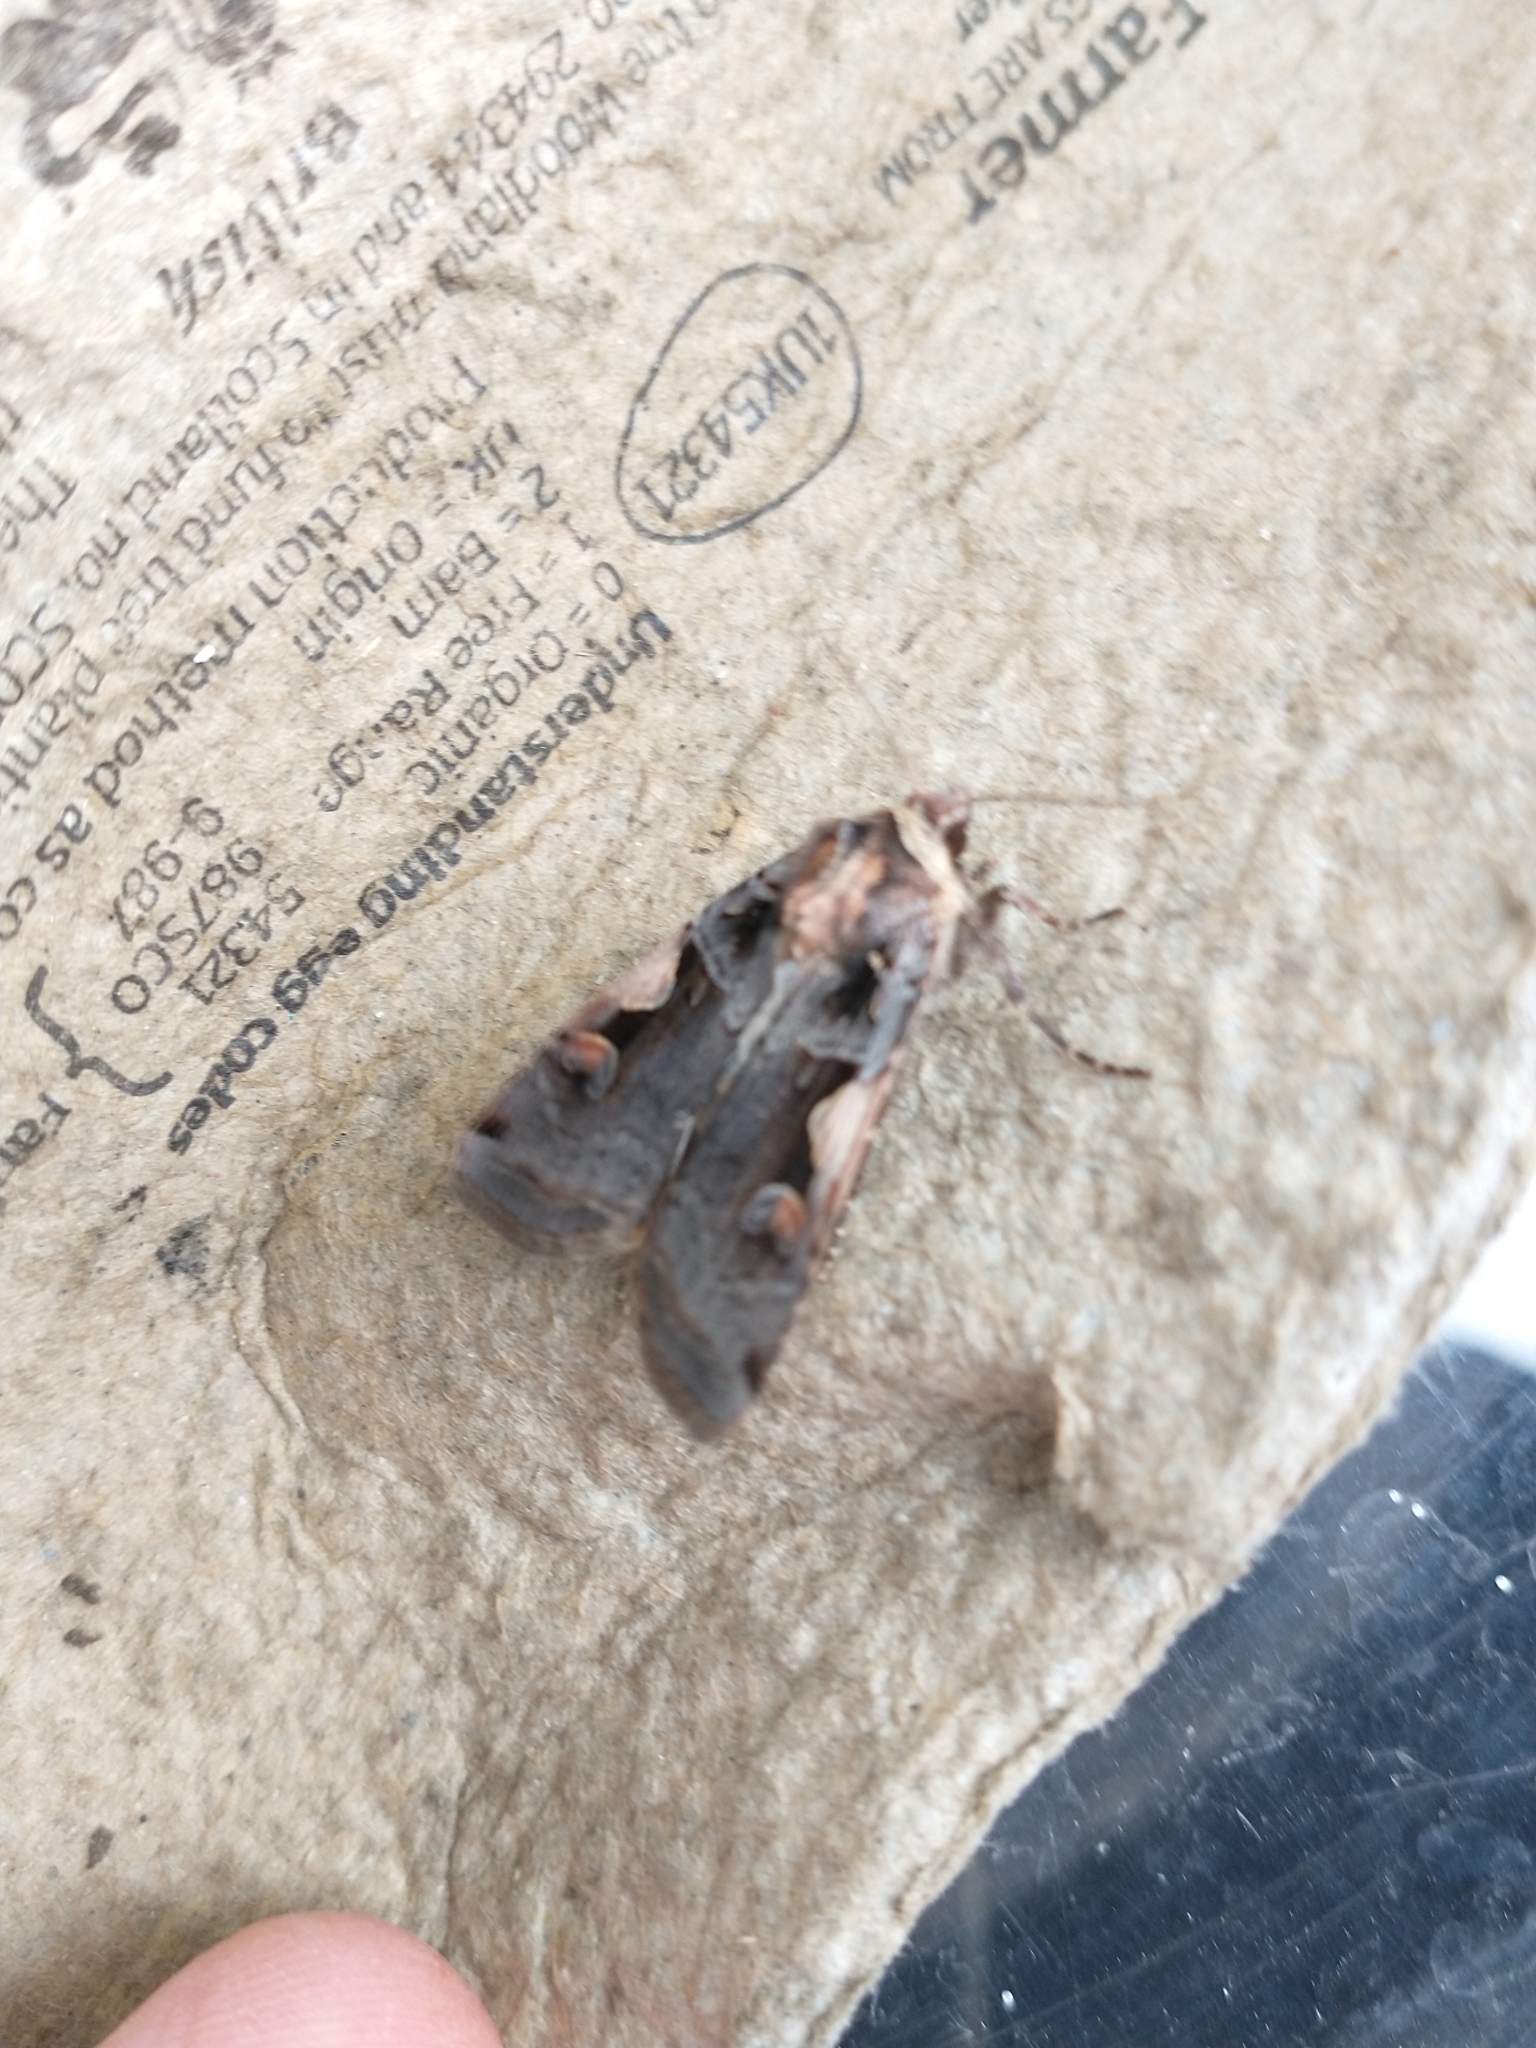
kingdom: Animalia
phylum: Arthropoda
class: Insecta
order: Lepidoptera
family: Noctuidae
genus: Xestia
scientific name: Xestia c-nigrum
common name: Setaceous hebrew character
